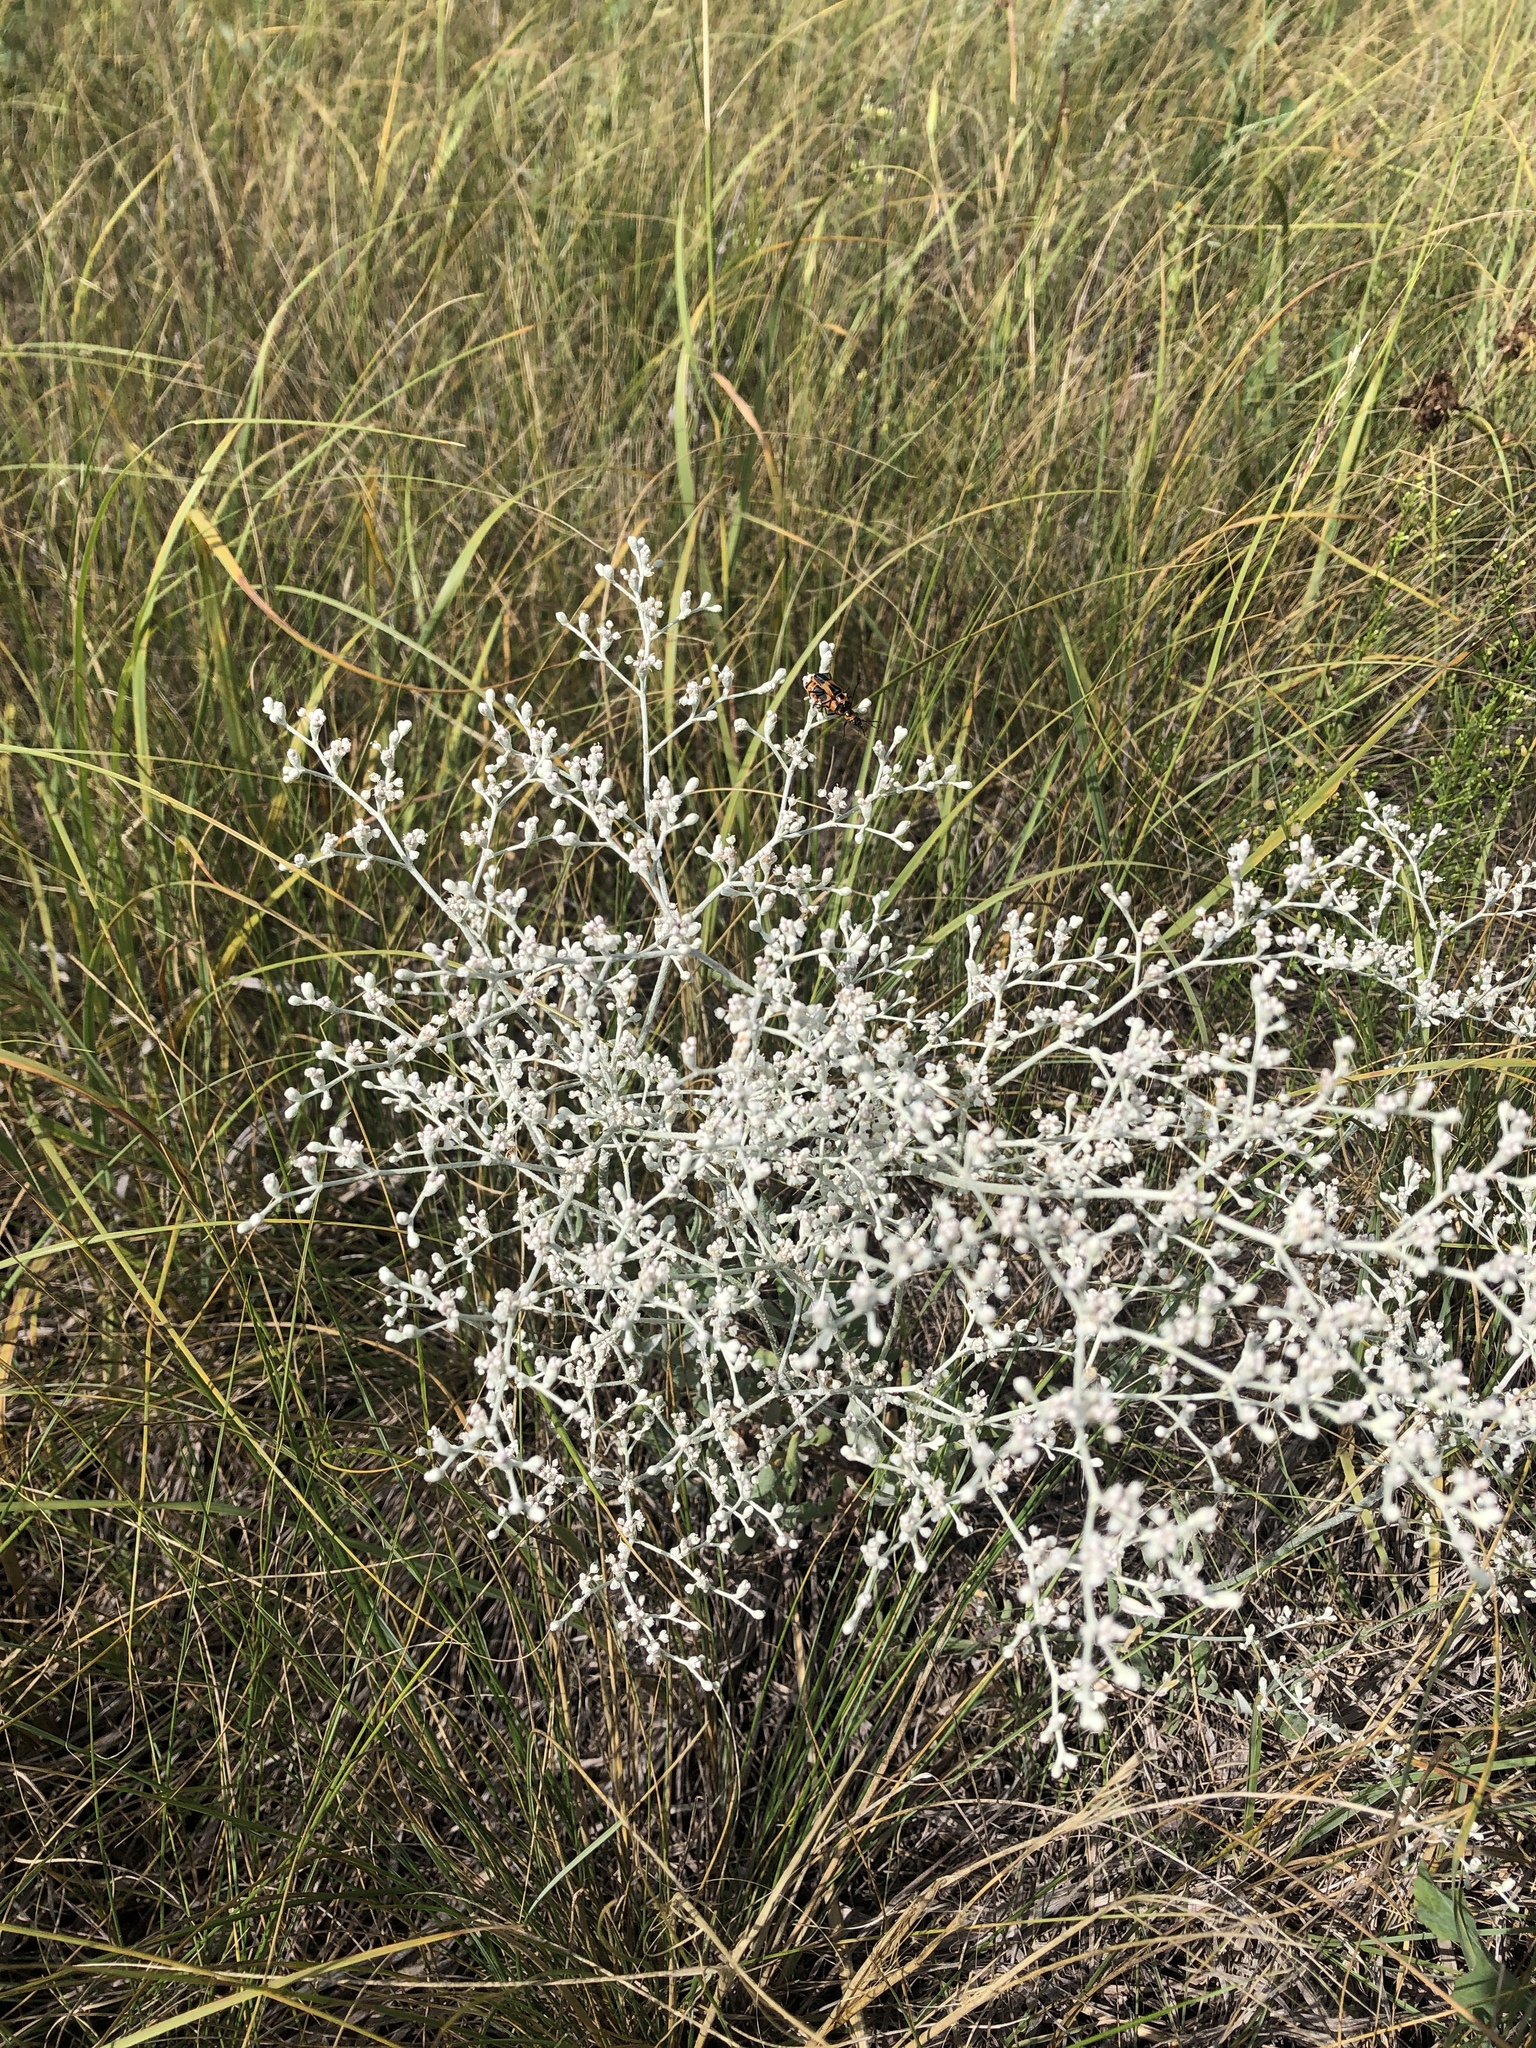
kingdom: Plantae
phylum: Tracheophyta
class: Magnoliopsida
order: Caryophyllales
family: Polygonaceae
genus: Eriogonum
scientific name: Eriogonum annuum
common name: Annual wild buckwheat
